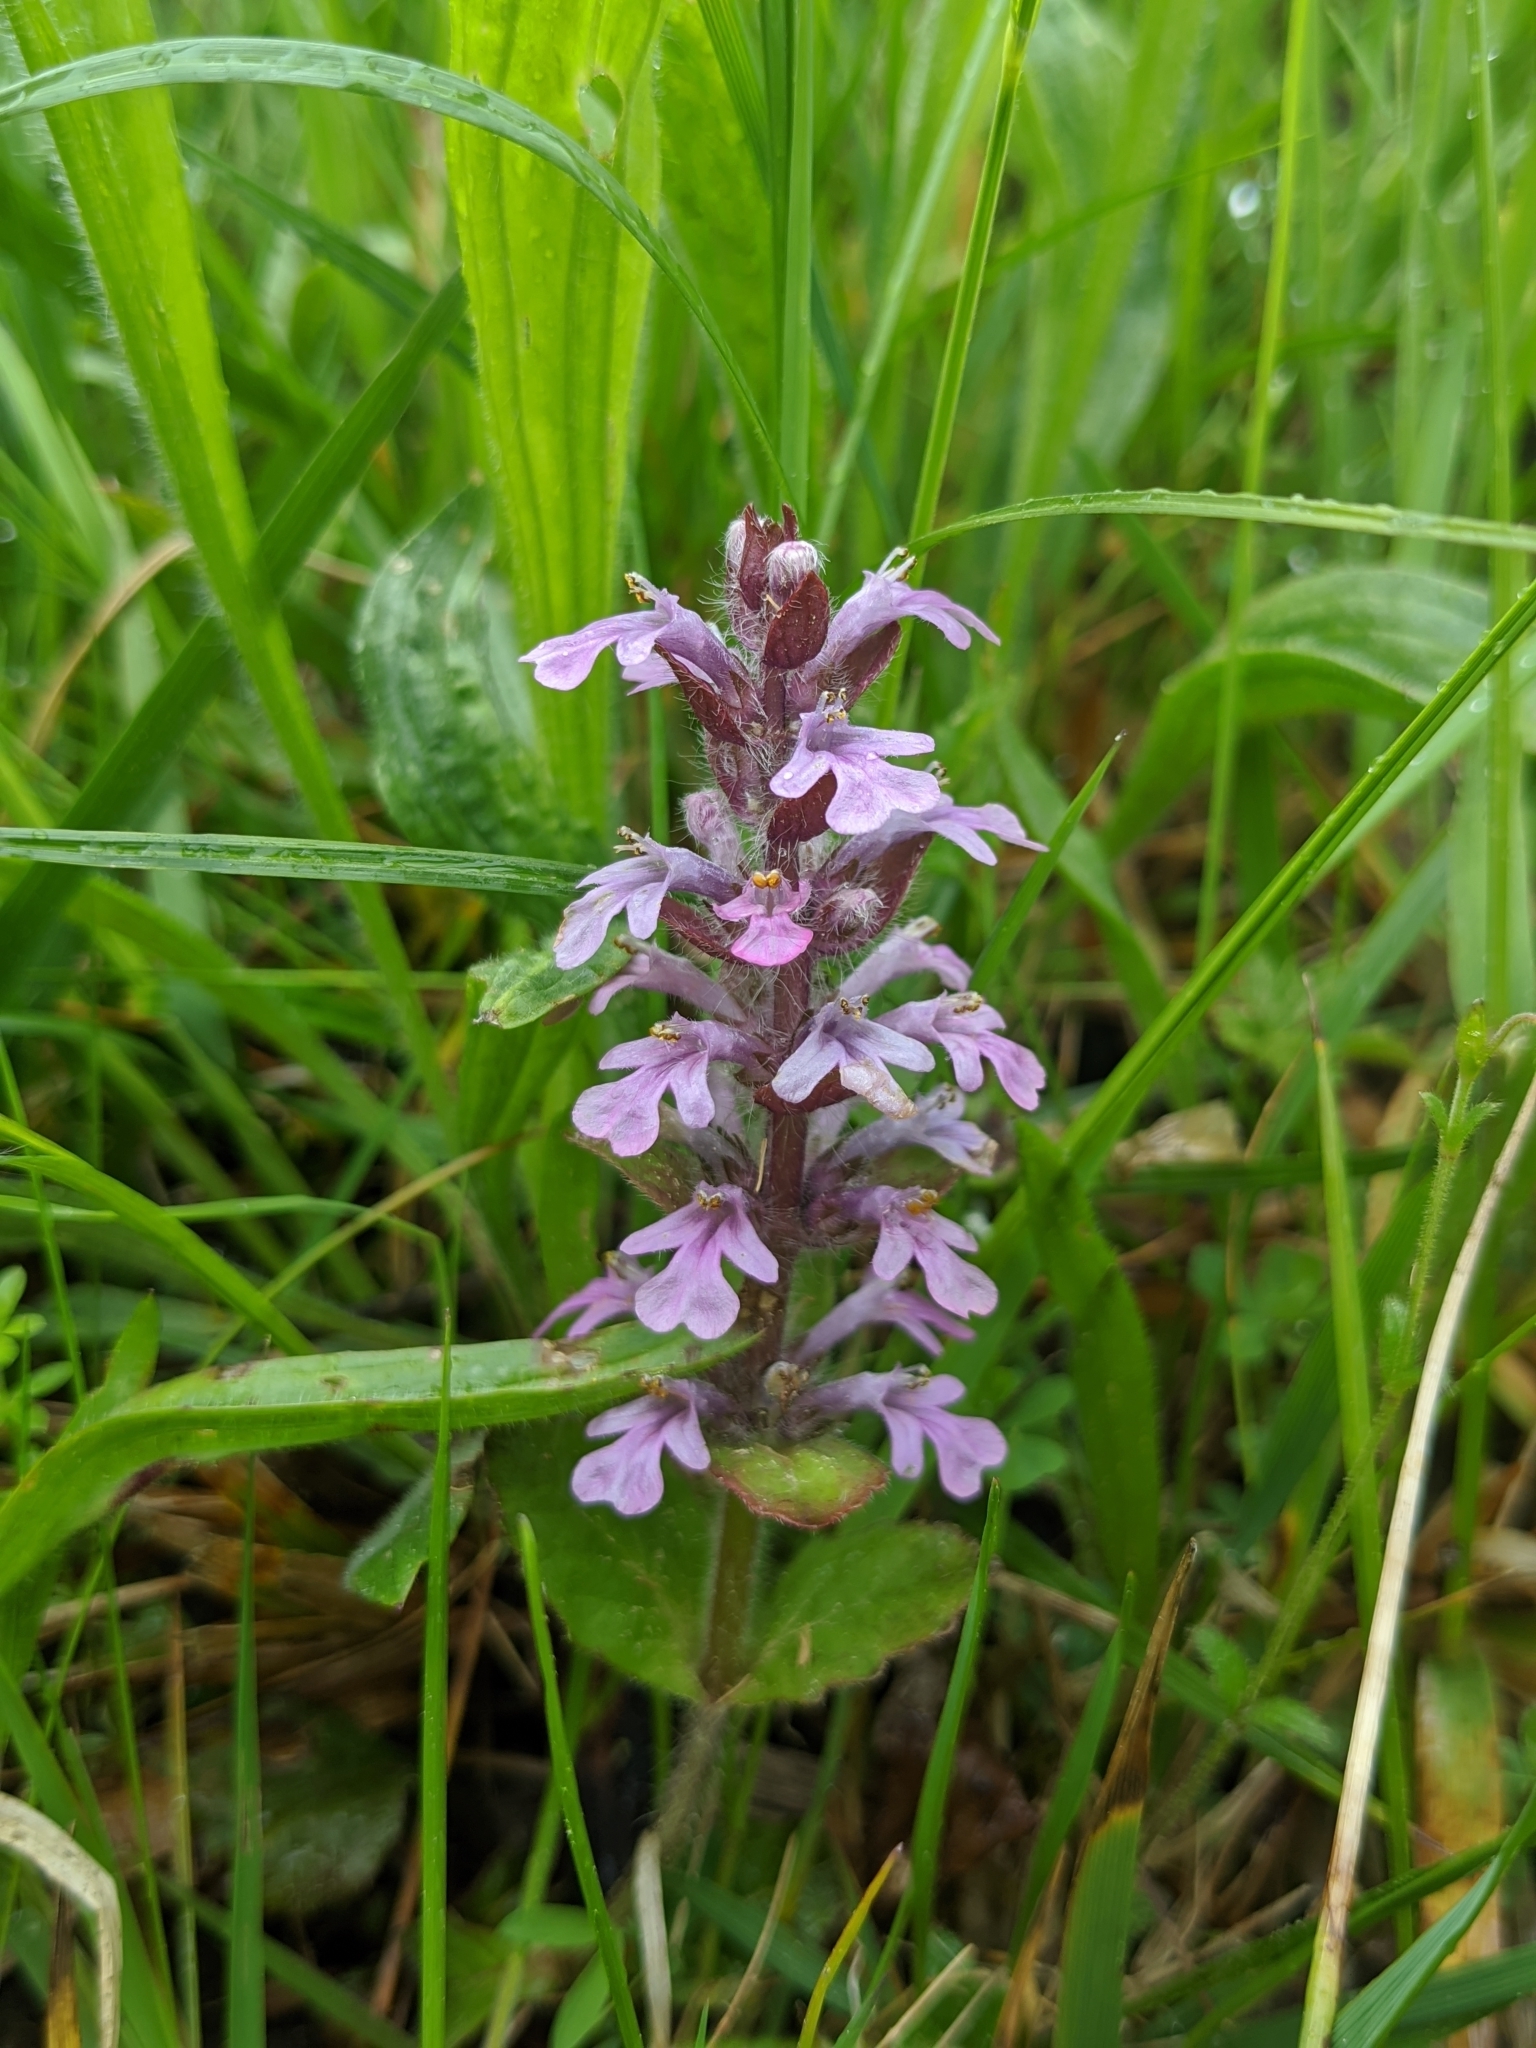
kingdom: Plantae
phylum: Tracheophyta
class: Magnoliopsida
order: Lamiales
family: Lamiaceae
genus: Ajuga
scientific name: Ajuga reptans
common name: Bugle
